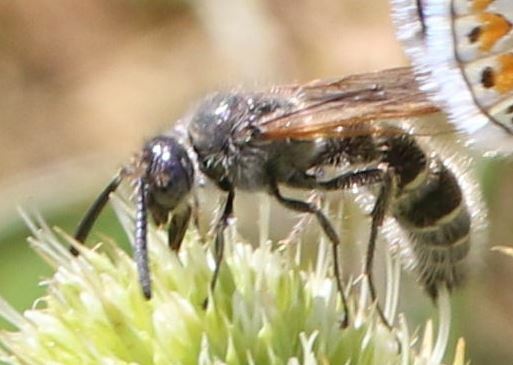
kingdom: Animalia
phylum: Arthropoda
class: Insecta
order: Hymenoptera
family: Scoliidae
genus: Colpa
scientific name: Colpa quinquecincta
